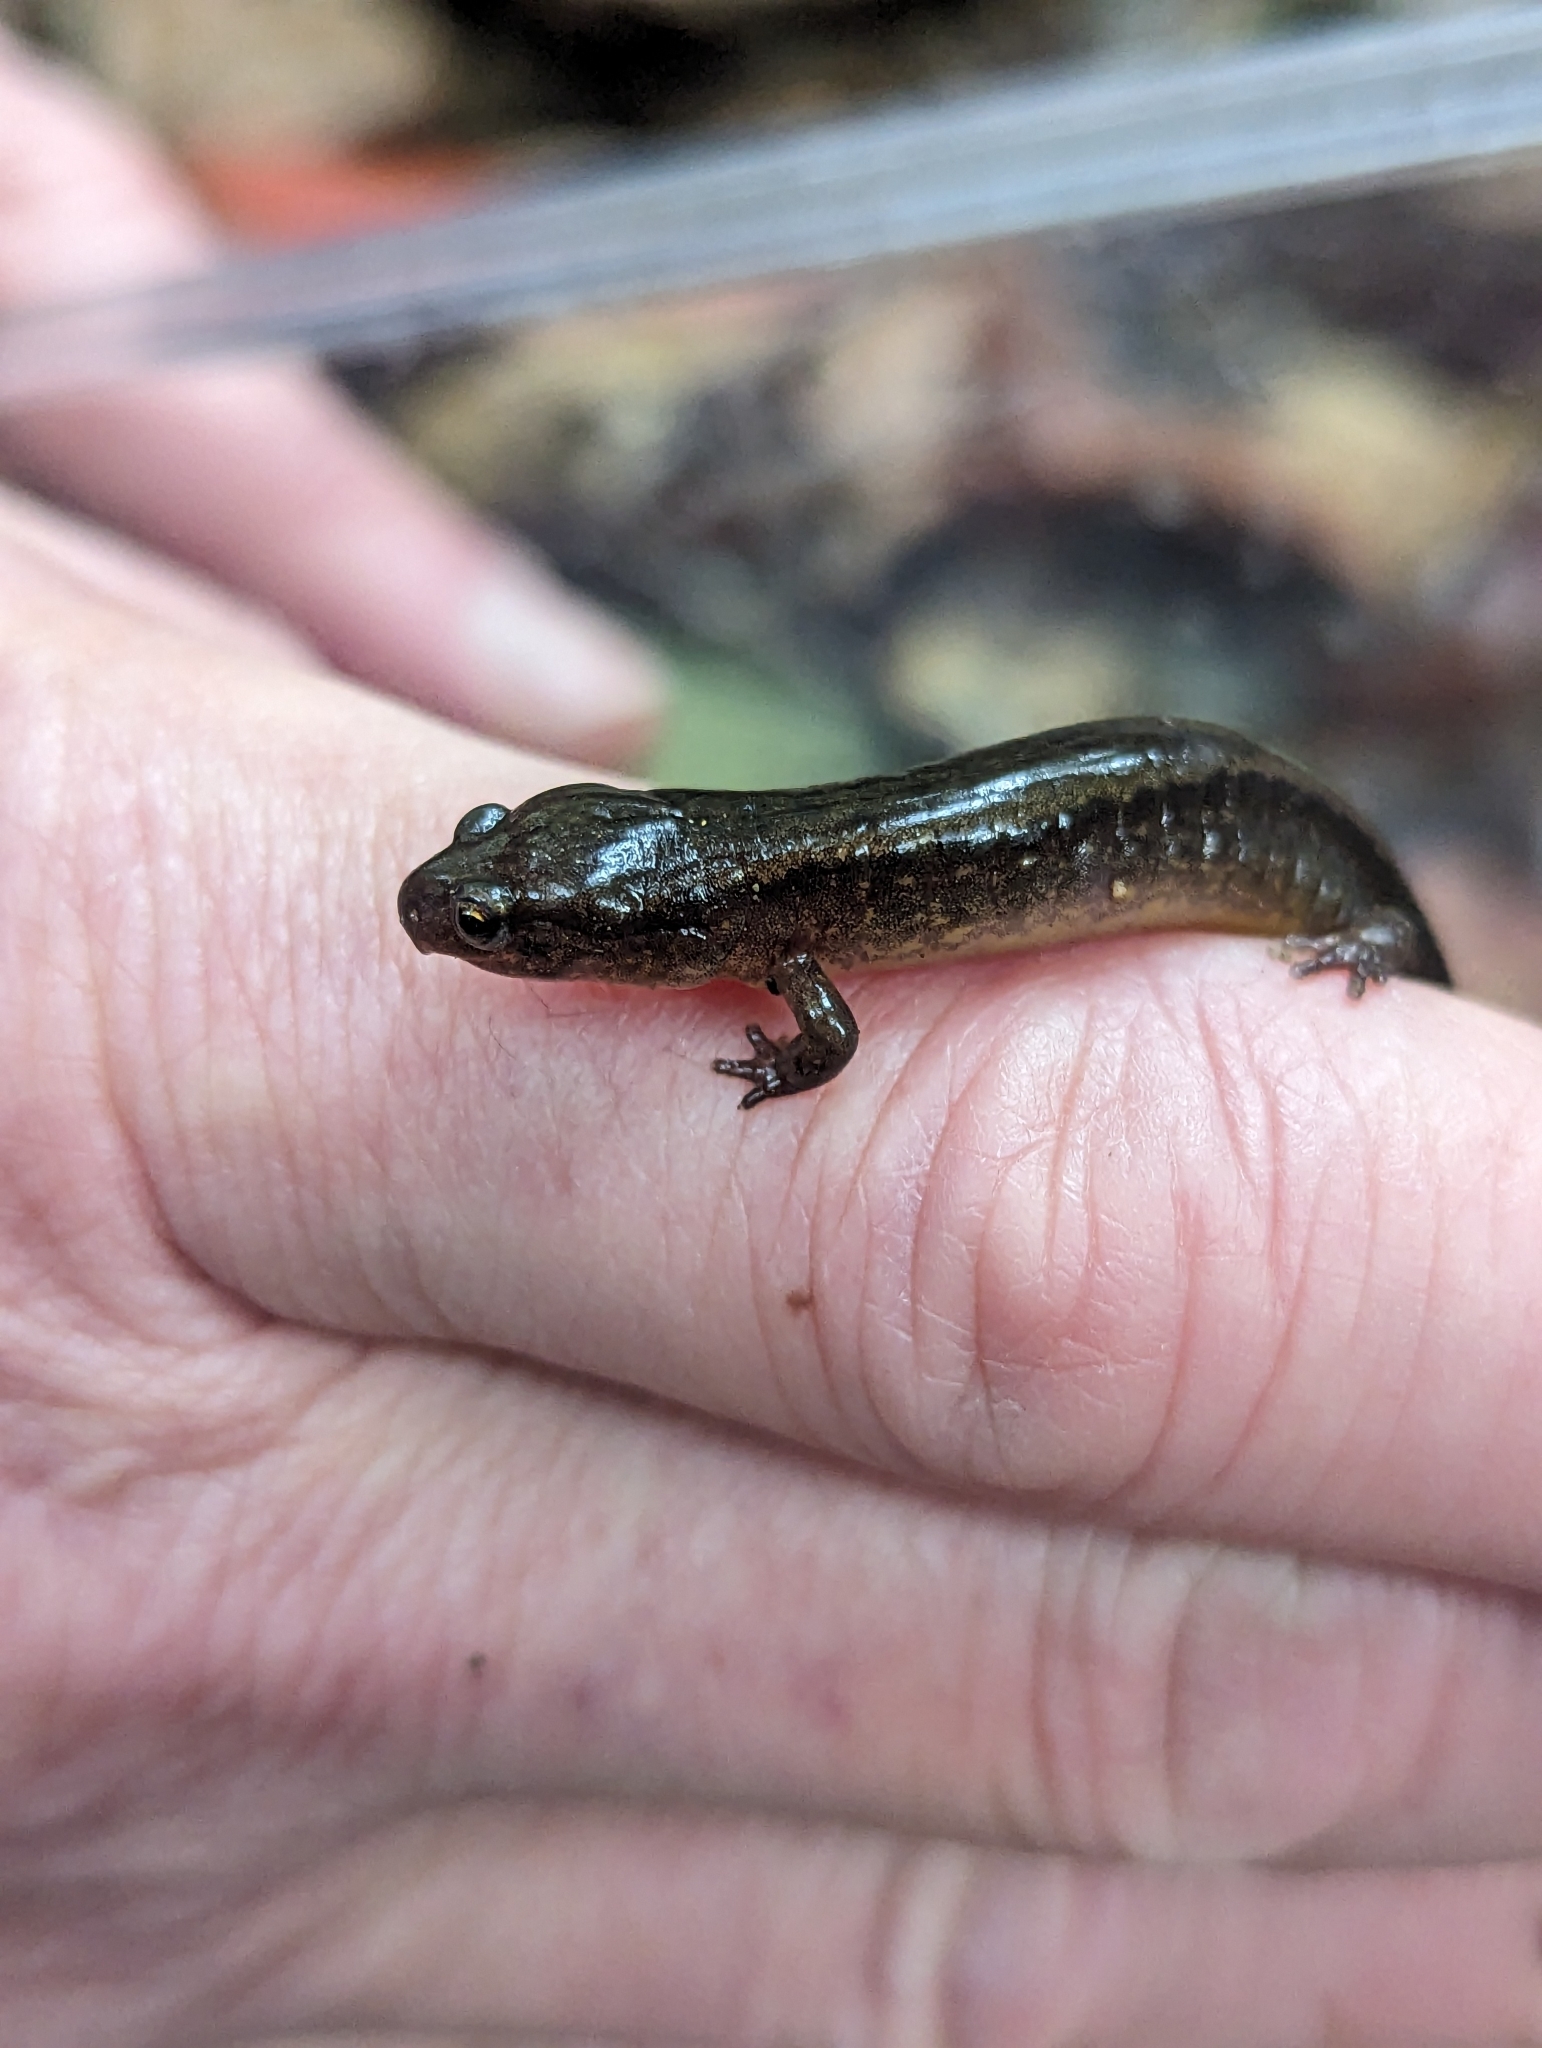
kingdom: Animalia
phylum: Chordata
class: Amphibia
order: Caudata
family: Plethodontidae
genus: Eurycea
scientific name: Eurycea bislineata
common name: Northern two-lined salamander
